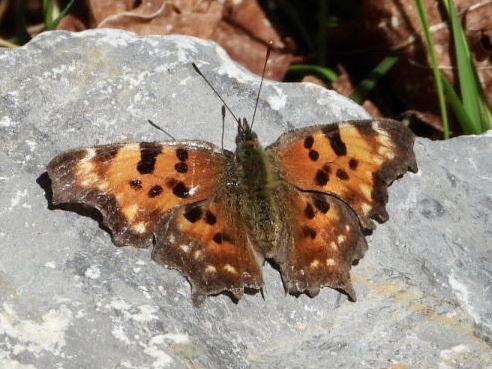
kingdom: Animalia
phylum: Arthropoda
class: Insecta
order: Lepidoptera
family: Nymphalidae
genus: Polygonia
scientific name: Polygonia faunus
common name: Green comma
